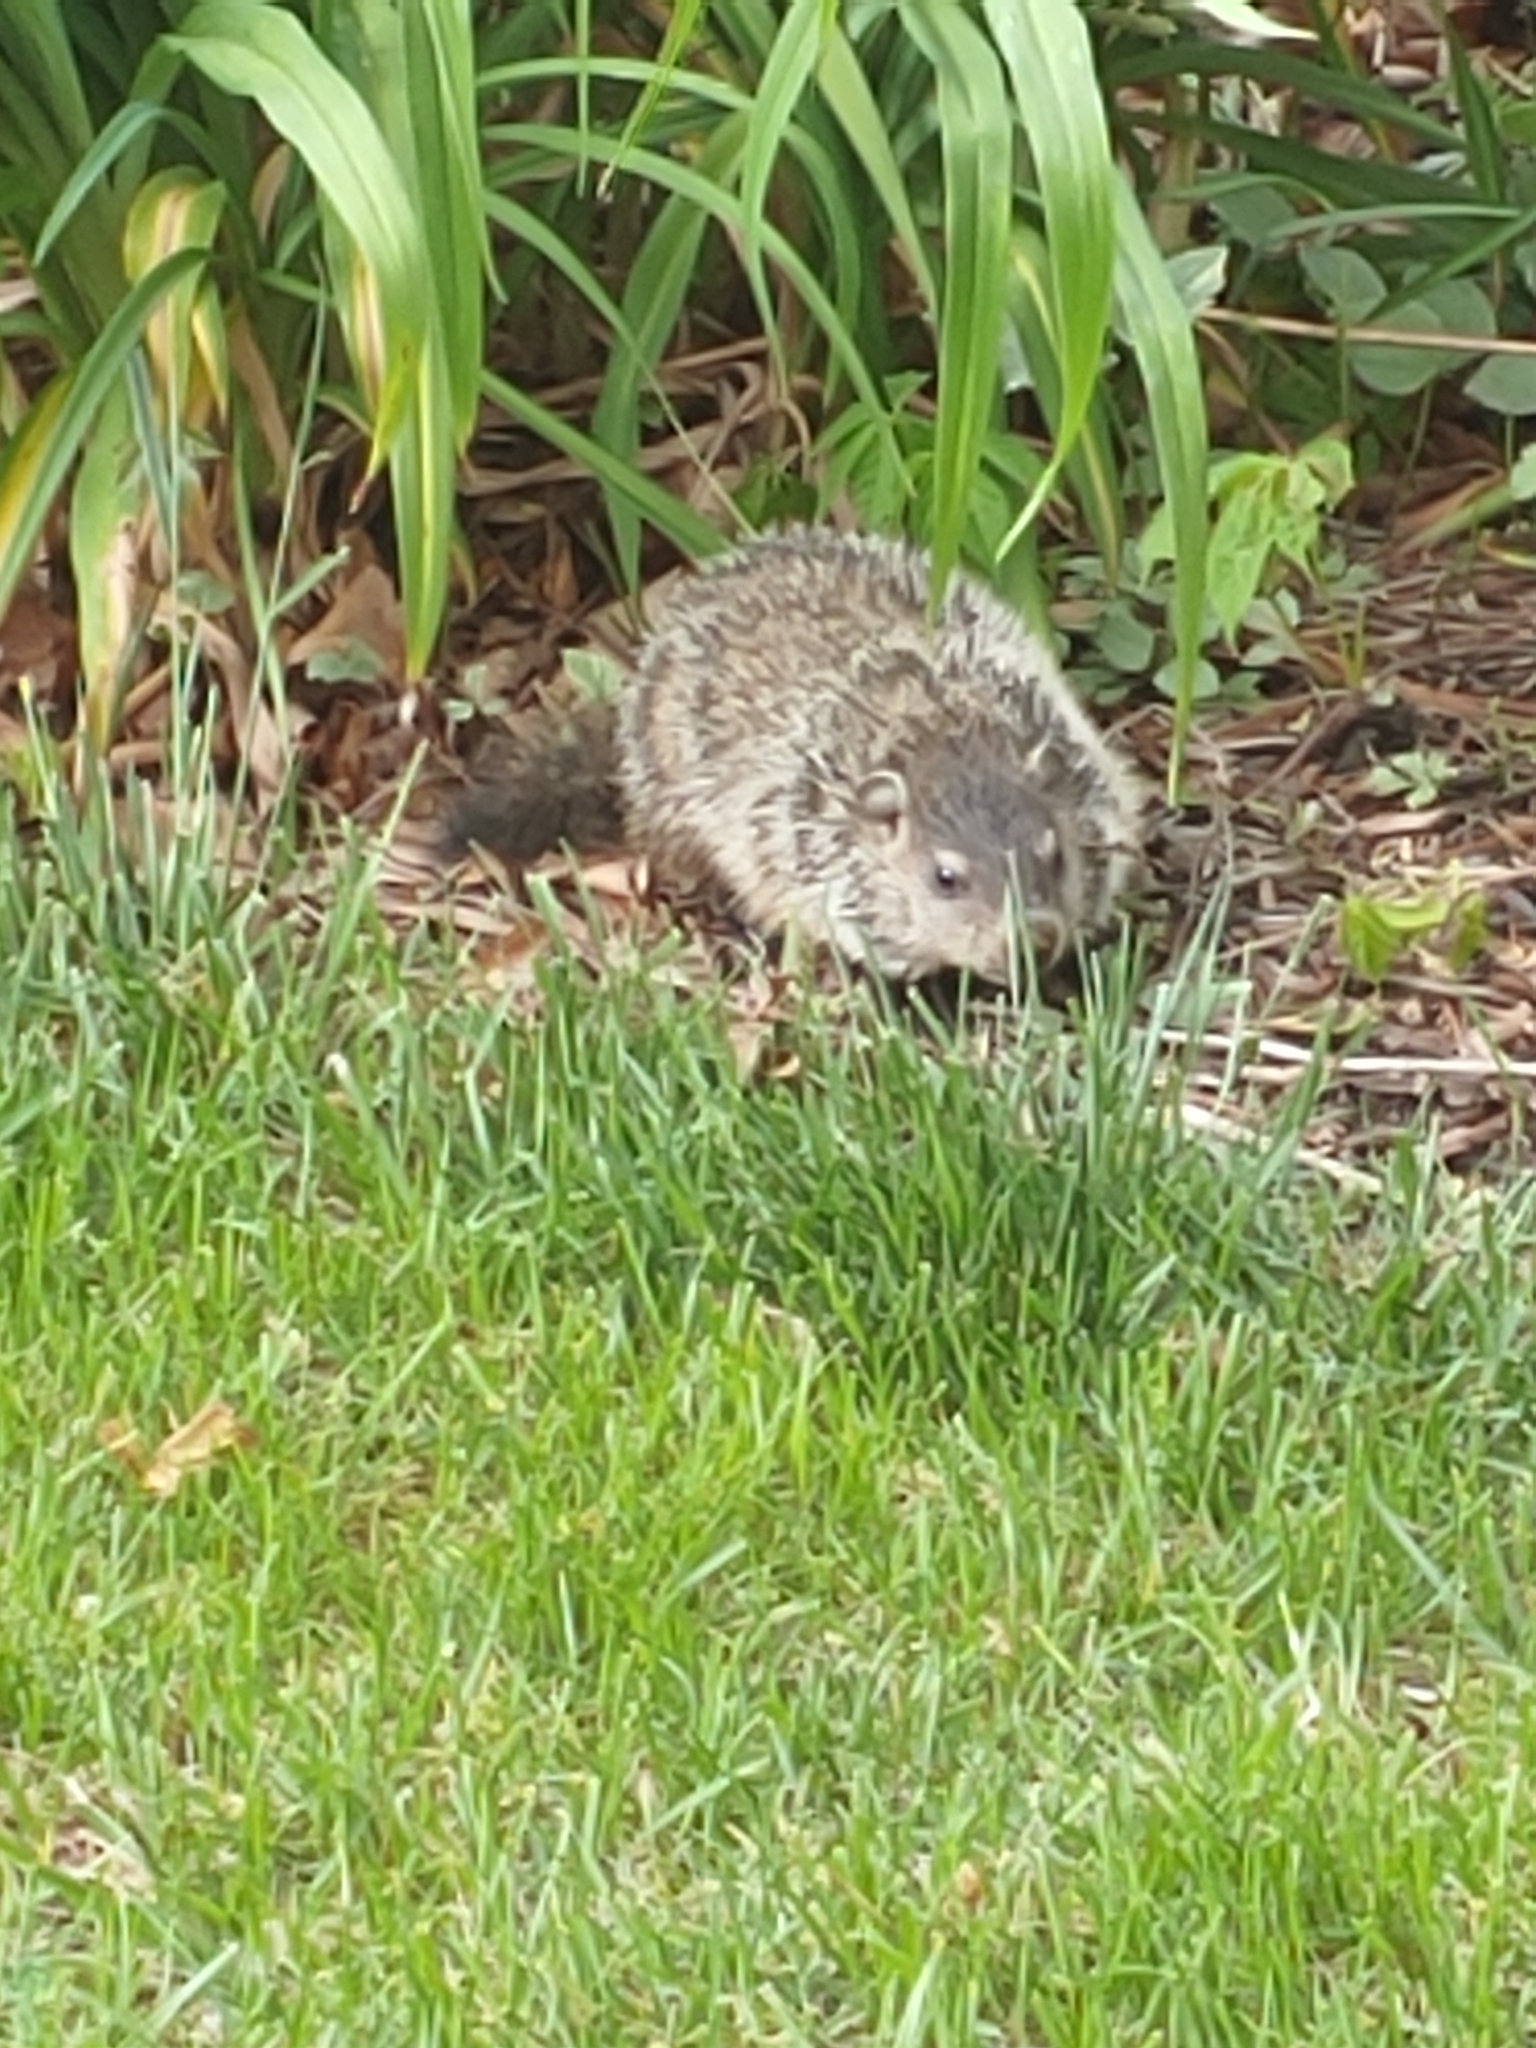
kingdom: Animalia
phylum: Chordata
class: Mammalia
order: Rodentia
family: Sciuridae
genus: Marmota
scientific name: Marmota monax
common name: Groundhog
